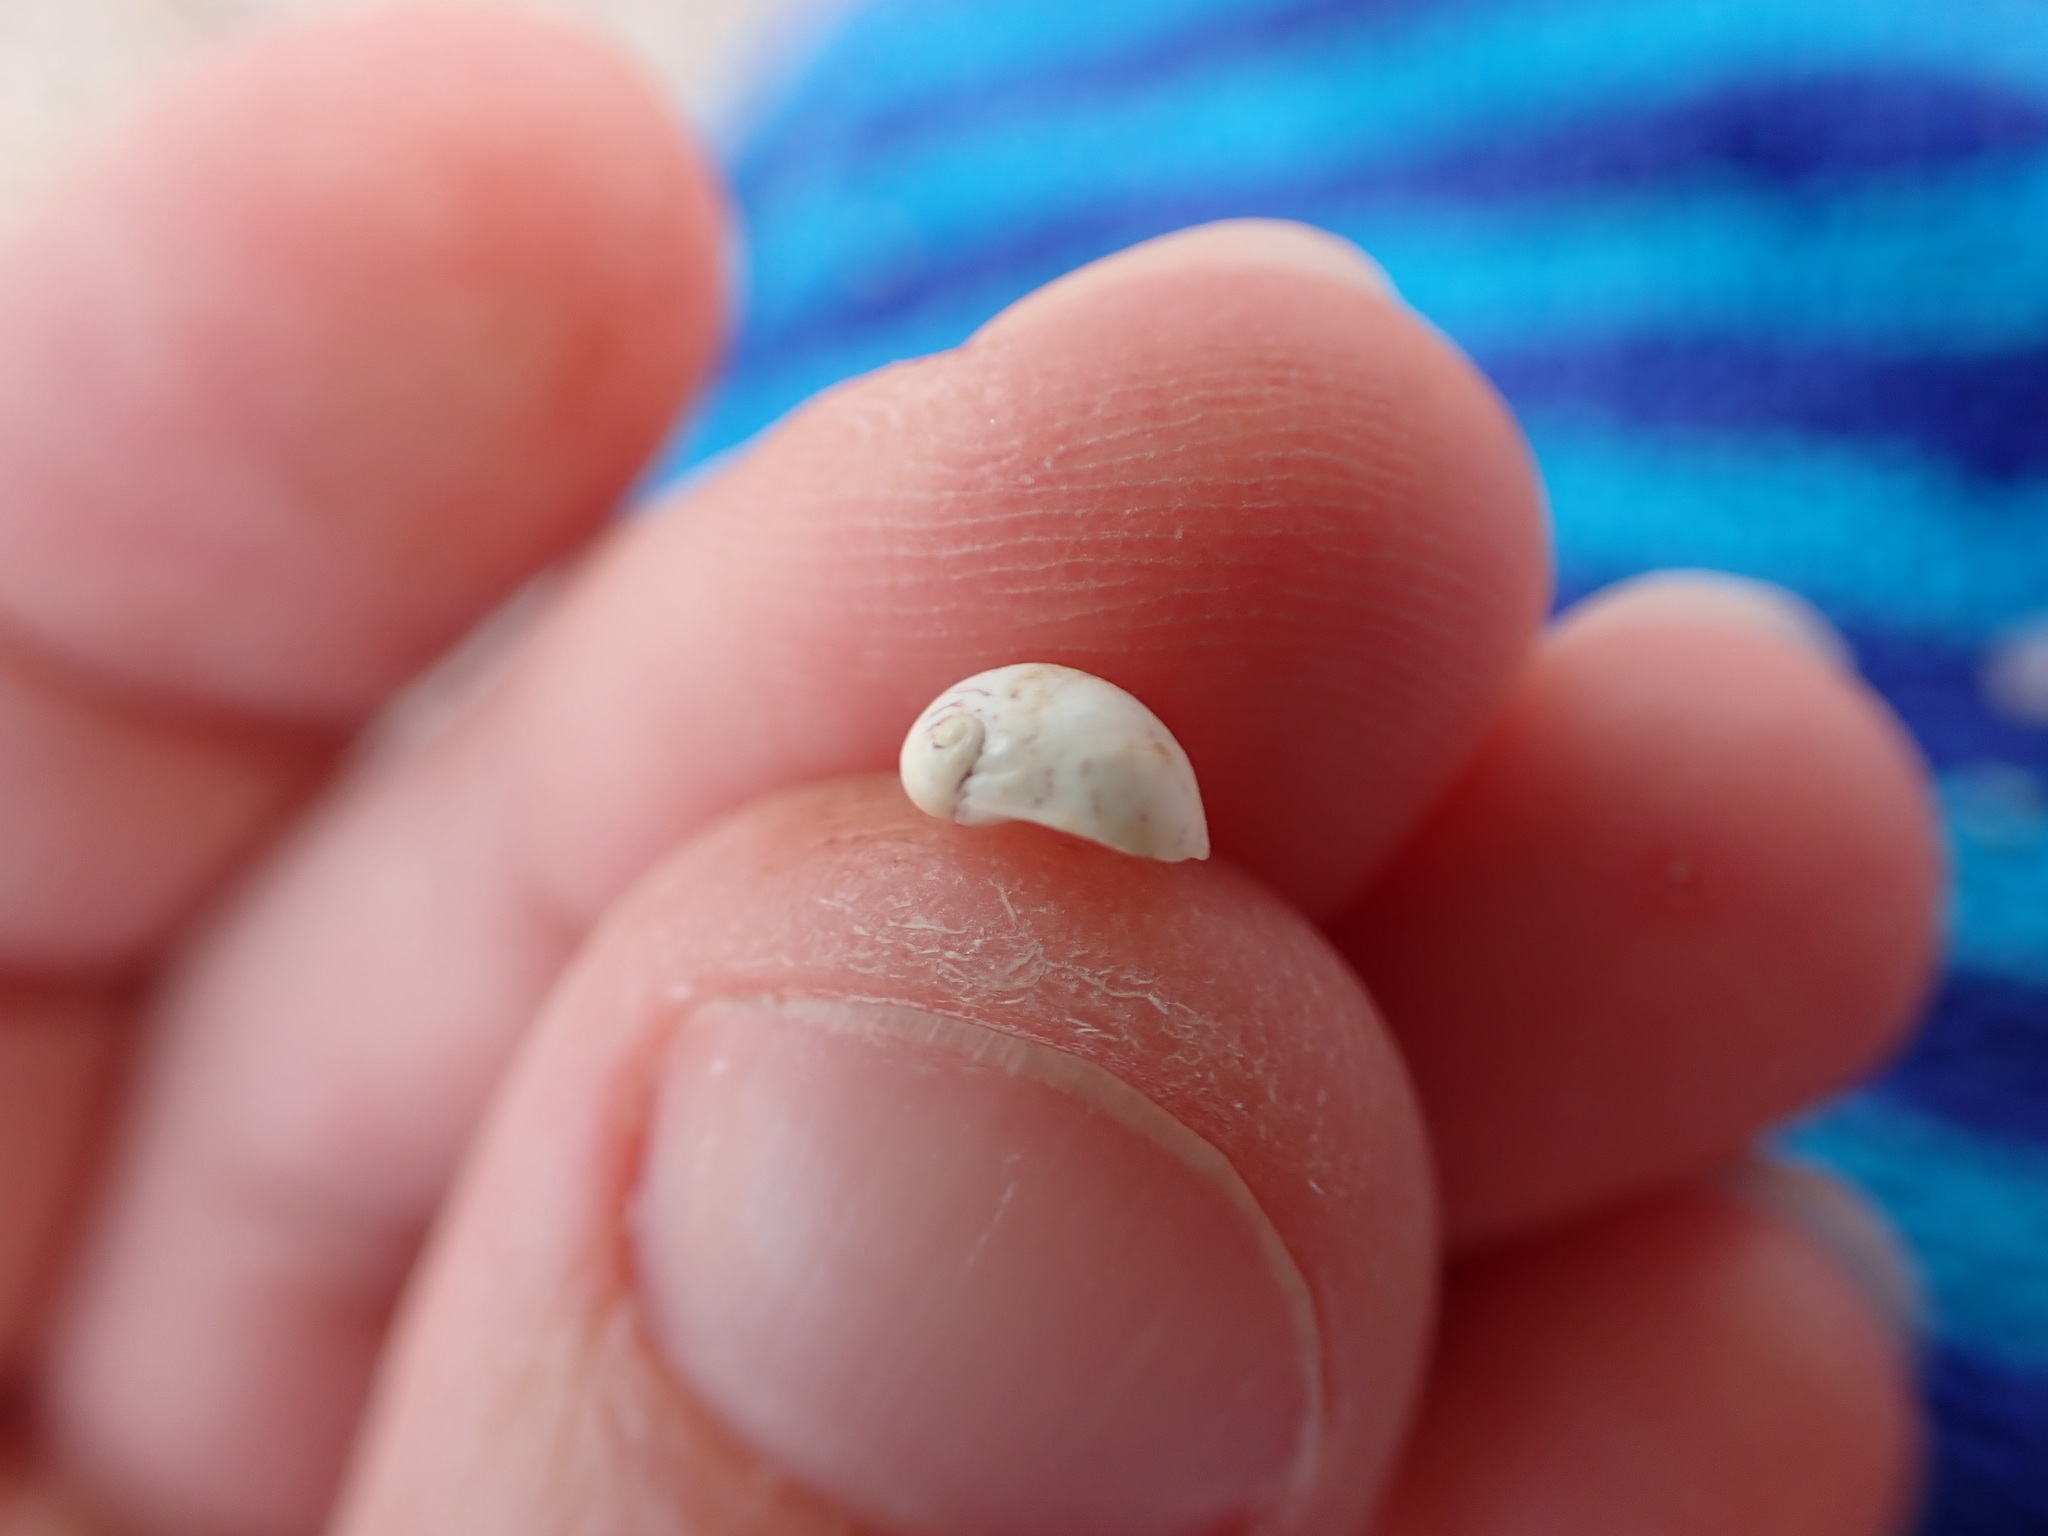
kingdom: Animalia
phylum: Mollusca
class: Gastropoda
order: Cycloneritida
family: Neritidae
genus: Theodoxus
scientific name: Theodoxus fluviatilis
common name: River nerite
